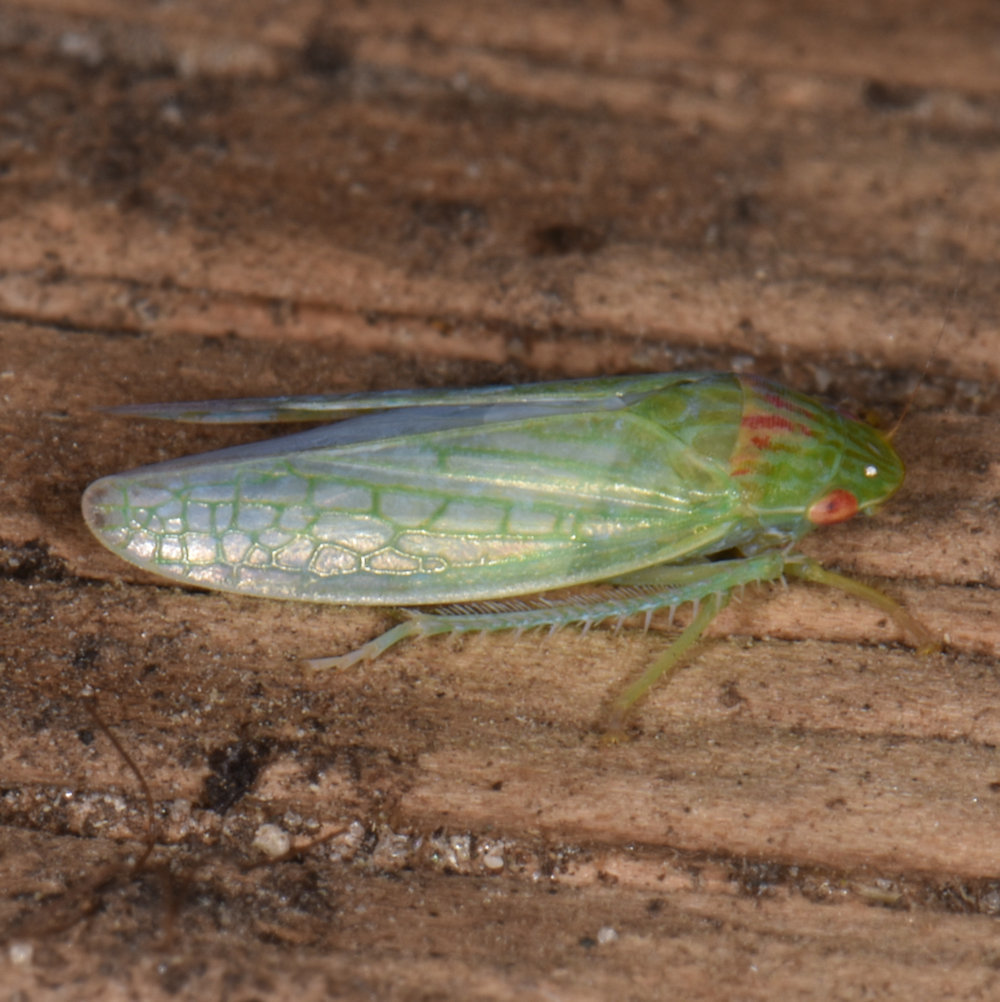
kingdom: Animalia
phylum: Arthropoda
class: Insecta
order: Hemiptera
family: Cicadellidae
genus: Gyponana
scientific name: Gyponana octolineata
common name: Eight-lined leafhopper
